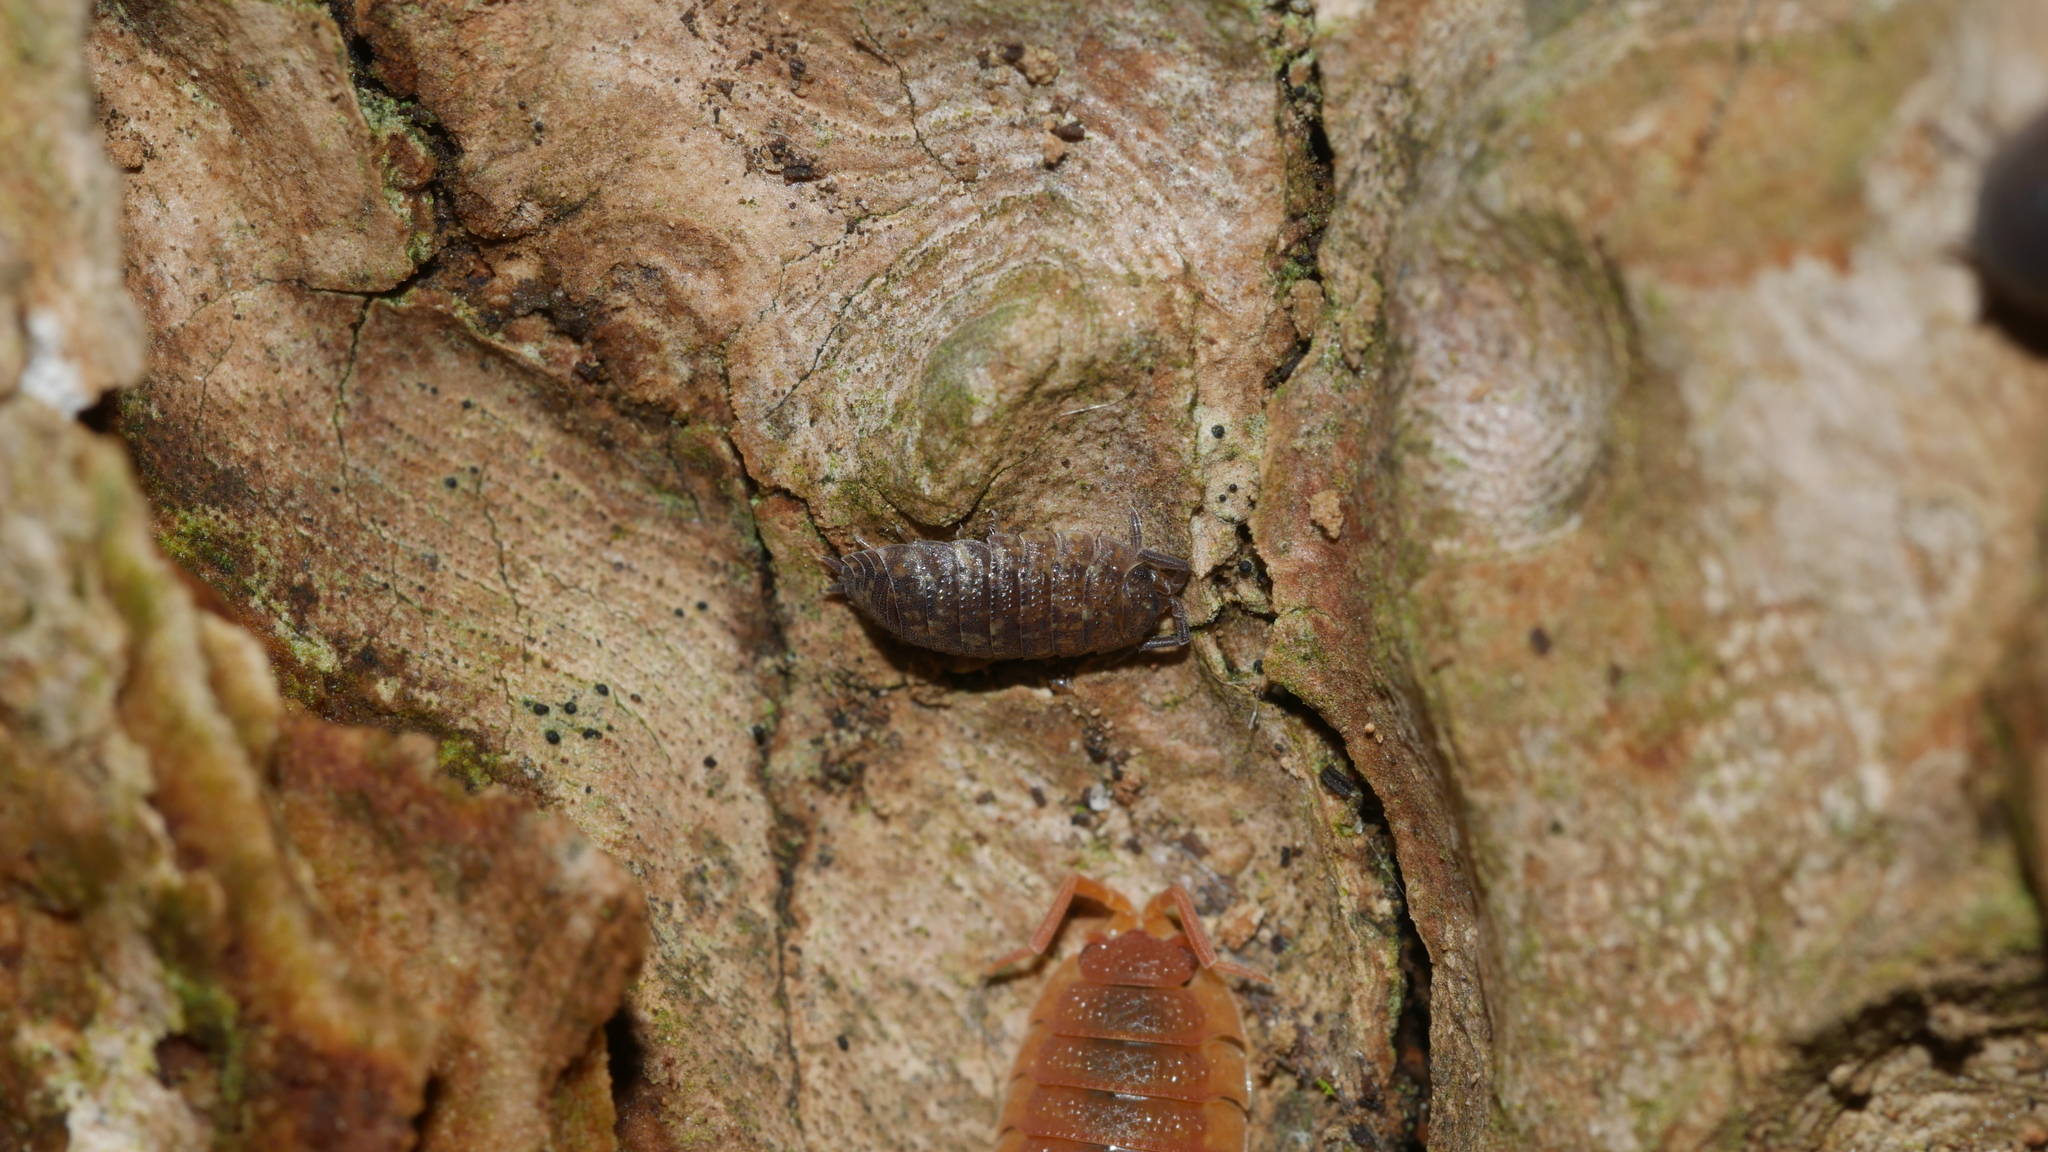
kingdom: Animalia
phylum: Arthropoda
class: Malacostraca
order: Isopoda
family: Porcellionidae
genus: Porcellio
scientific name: Porcellio scaber
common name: Common rough woodlouse
